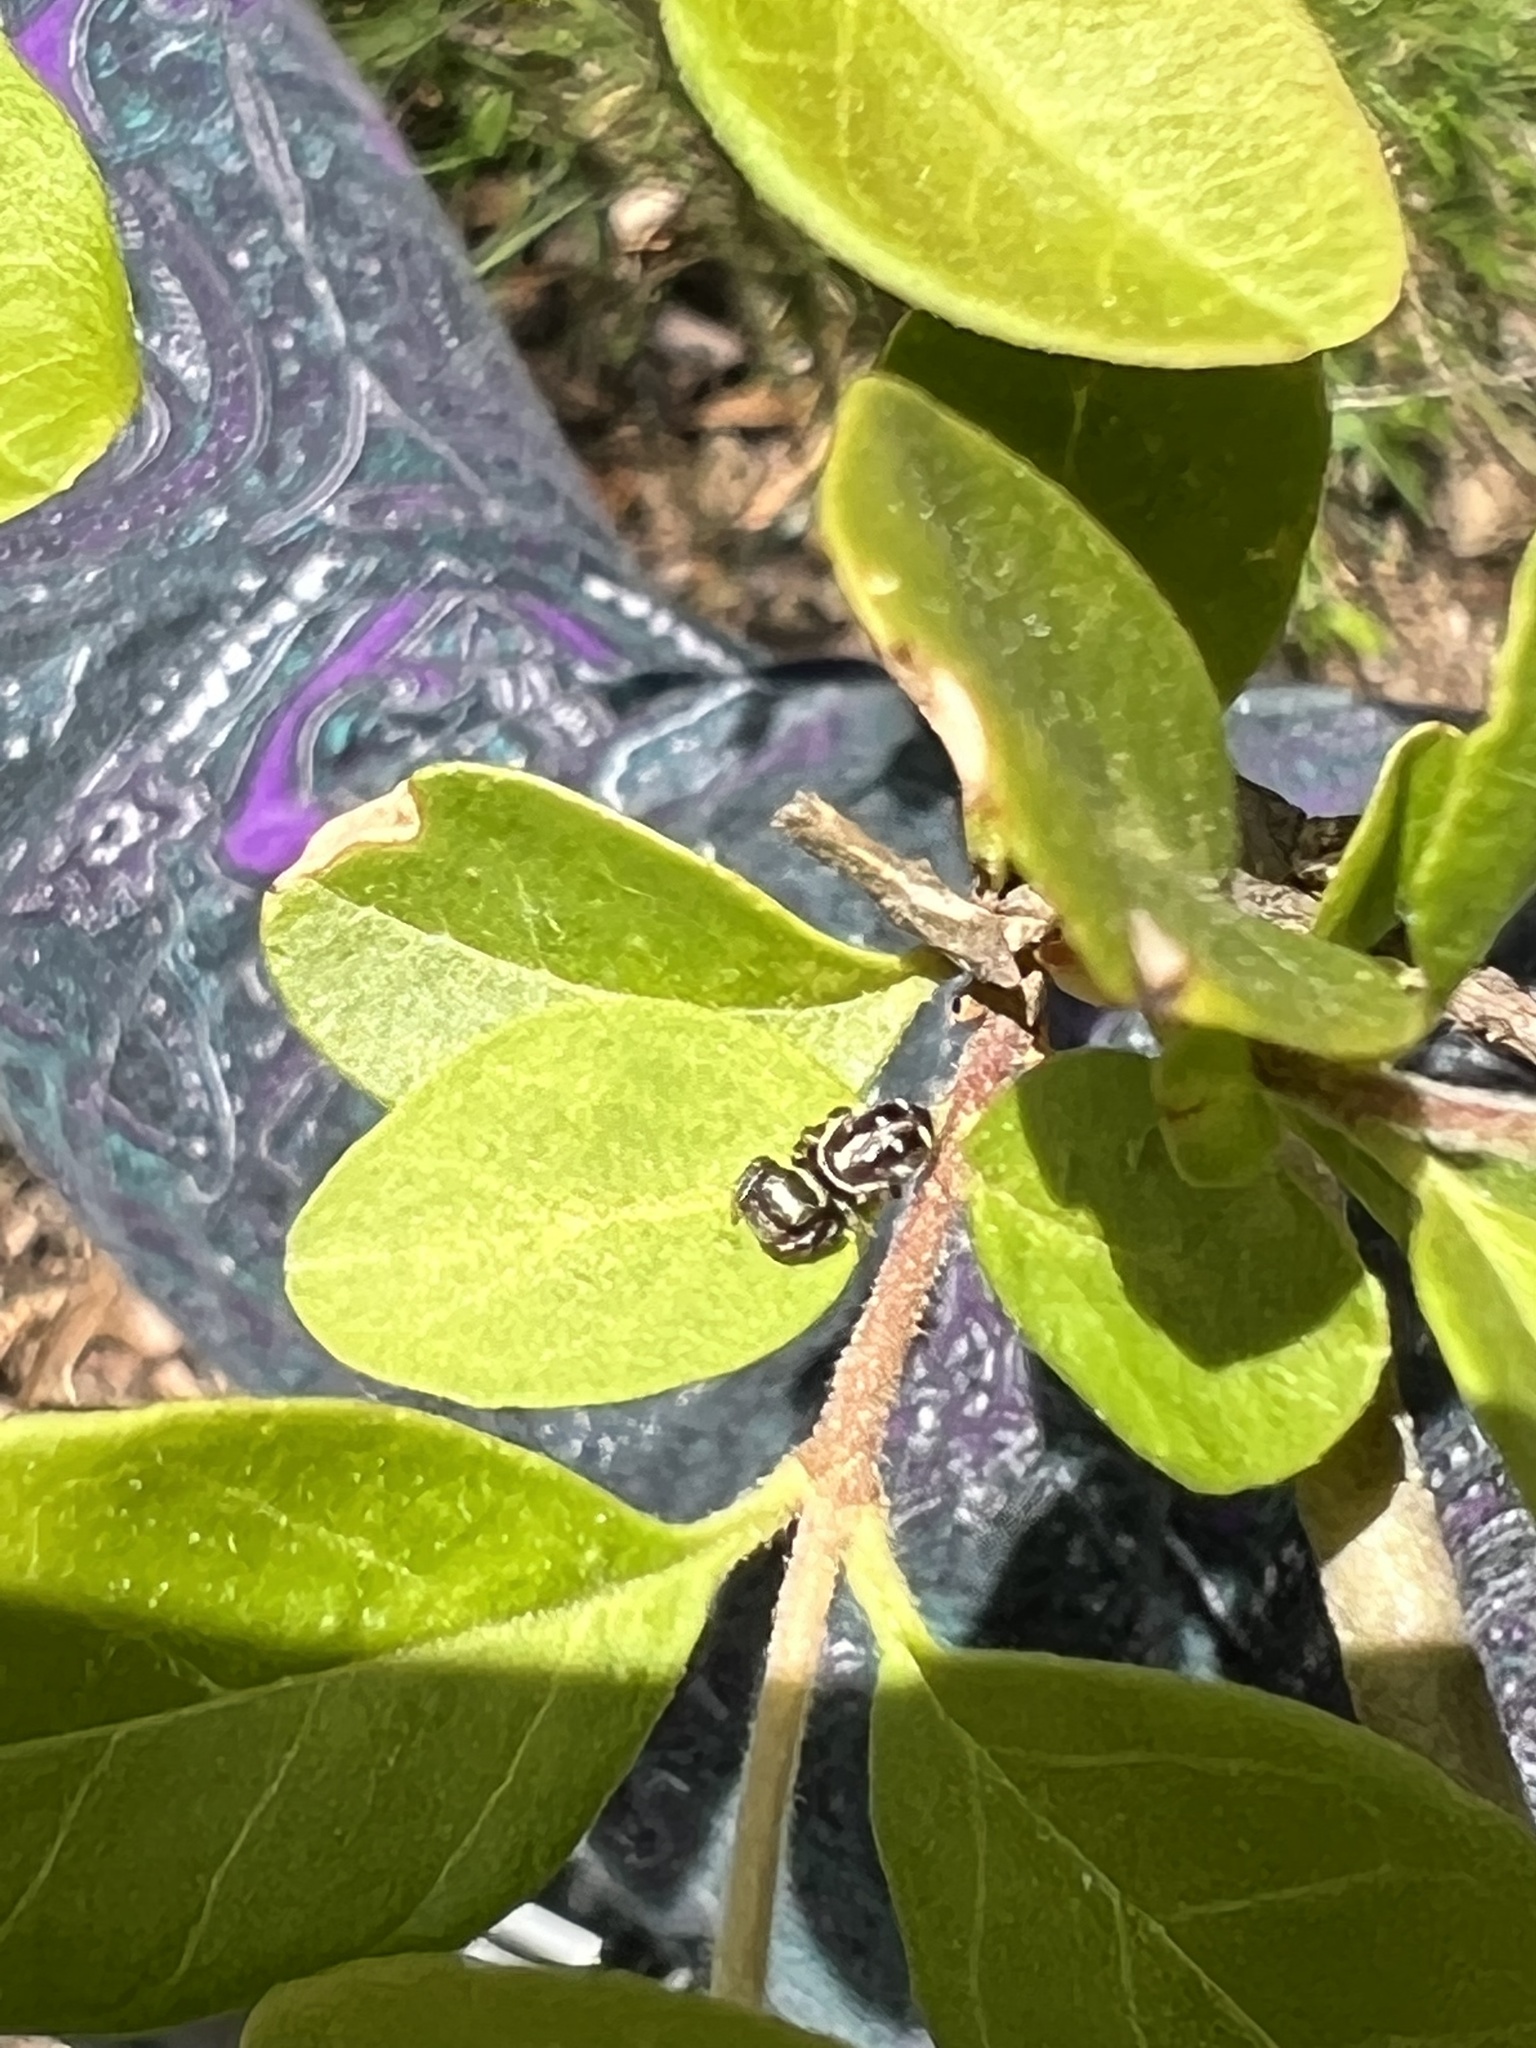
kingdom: Animalia
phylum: Arthropoda
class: Arachnida
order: Araneae
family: Salticidae
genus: Pelegrina
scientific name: Pelegrina galathea
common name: Jumping spiders
